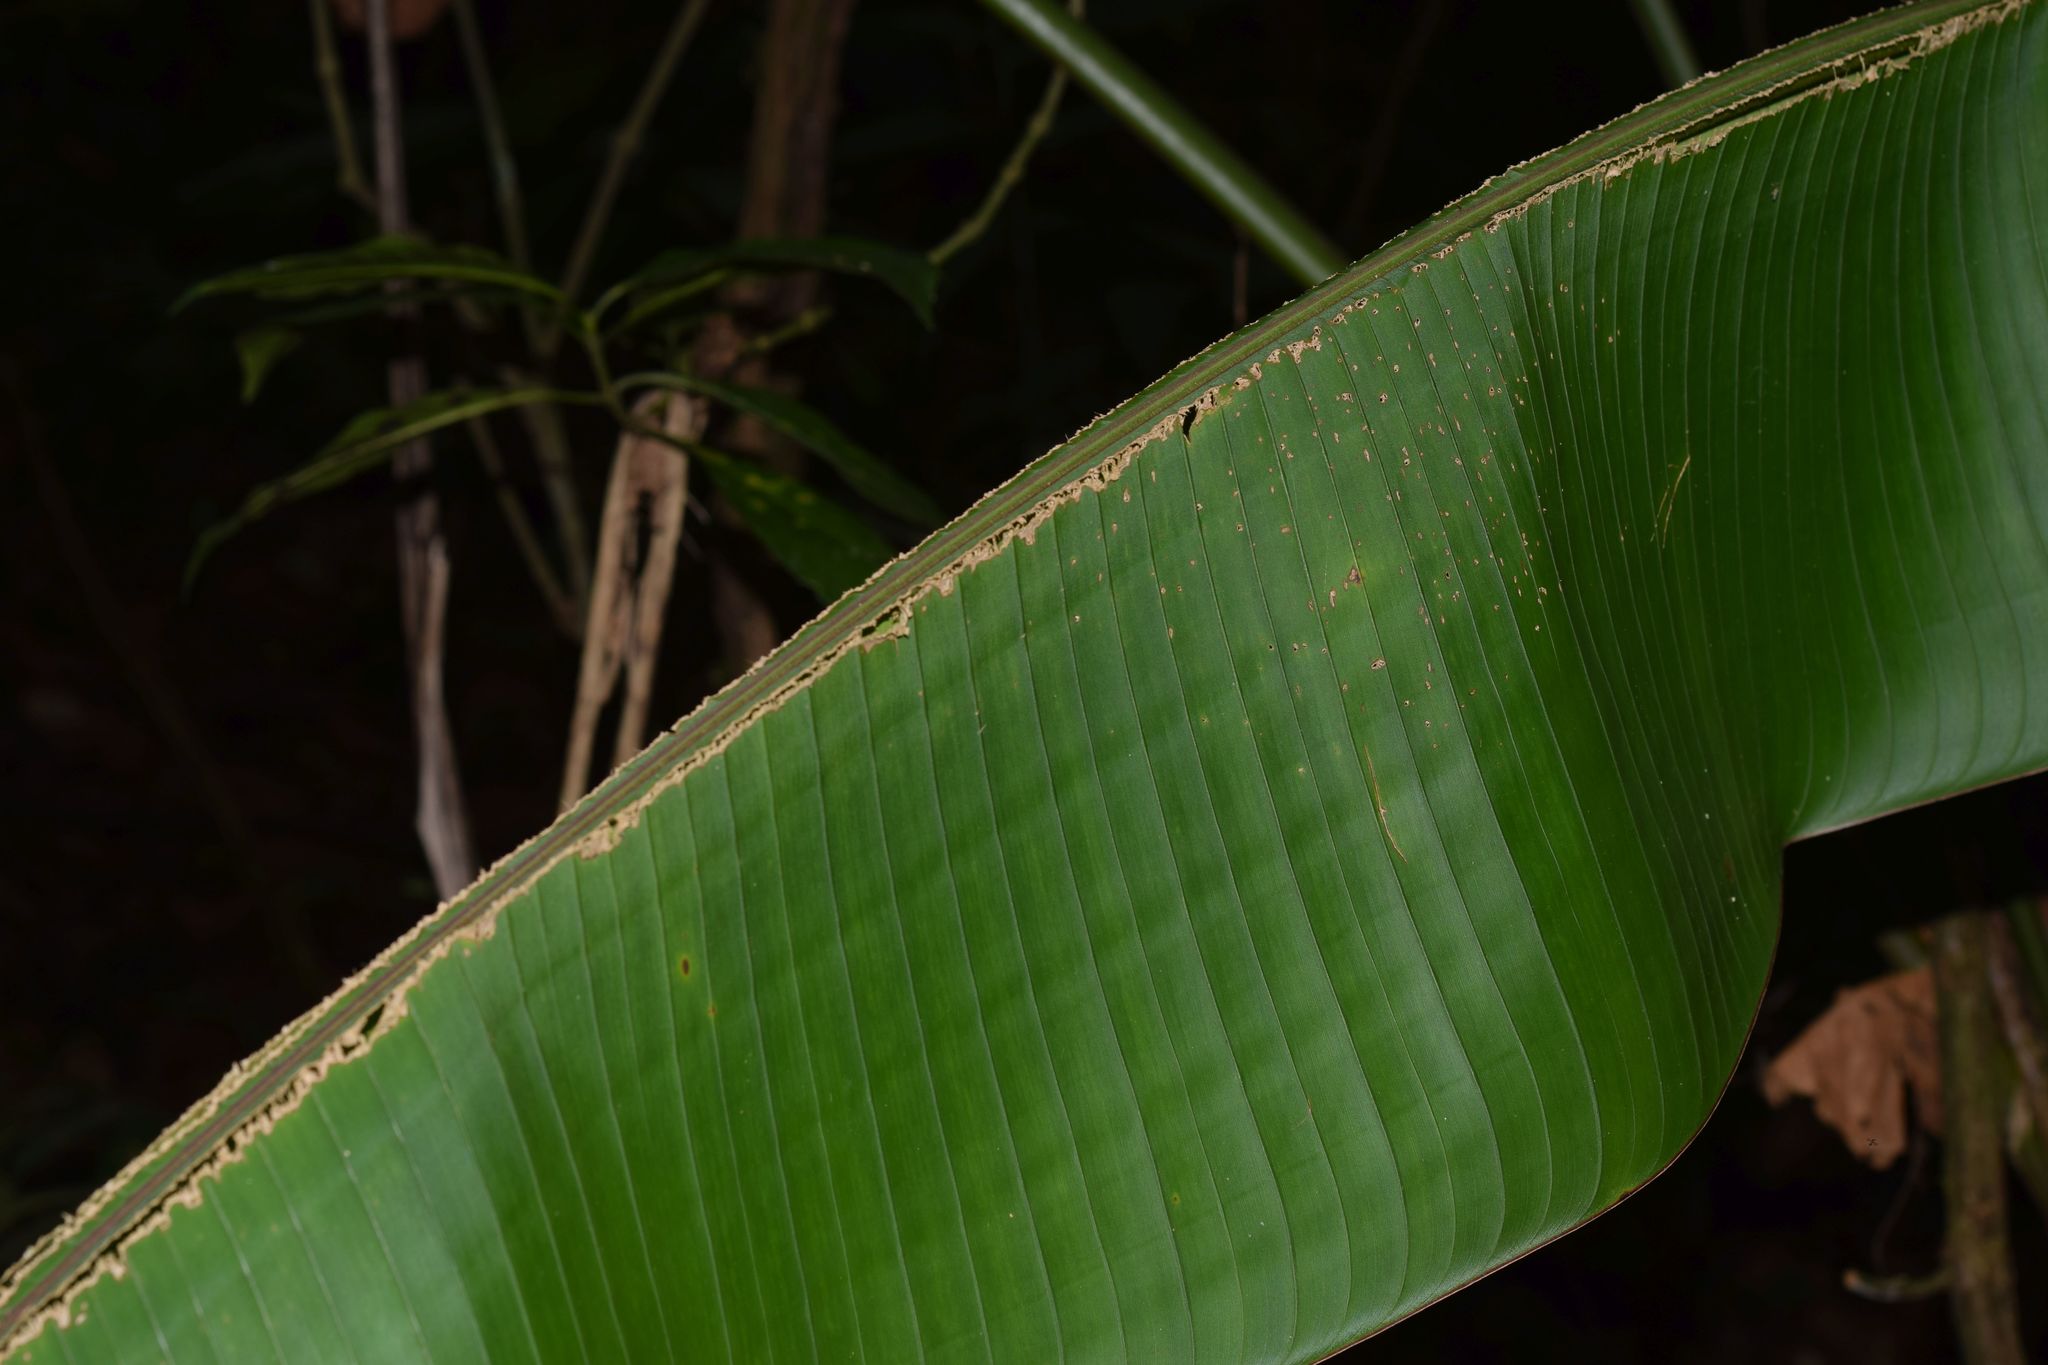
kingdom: Animalia
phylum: Chordata
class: Mammalia
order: Chiroptera
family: Phyllostomidae
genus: Ectophylla
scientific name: Ectophylla alba
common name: Honduran white bat
